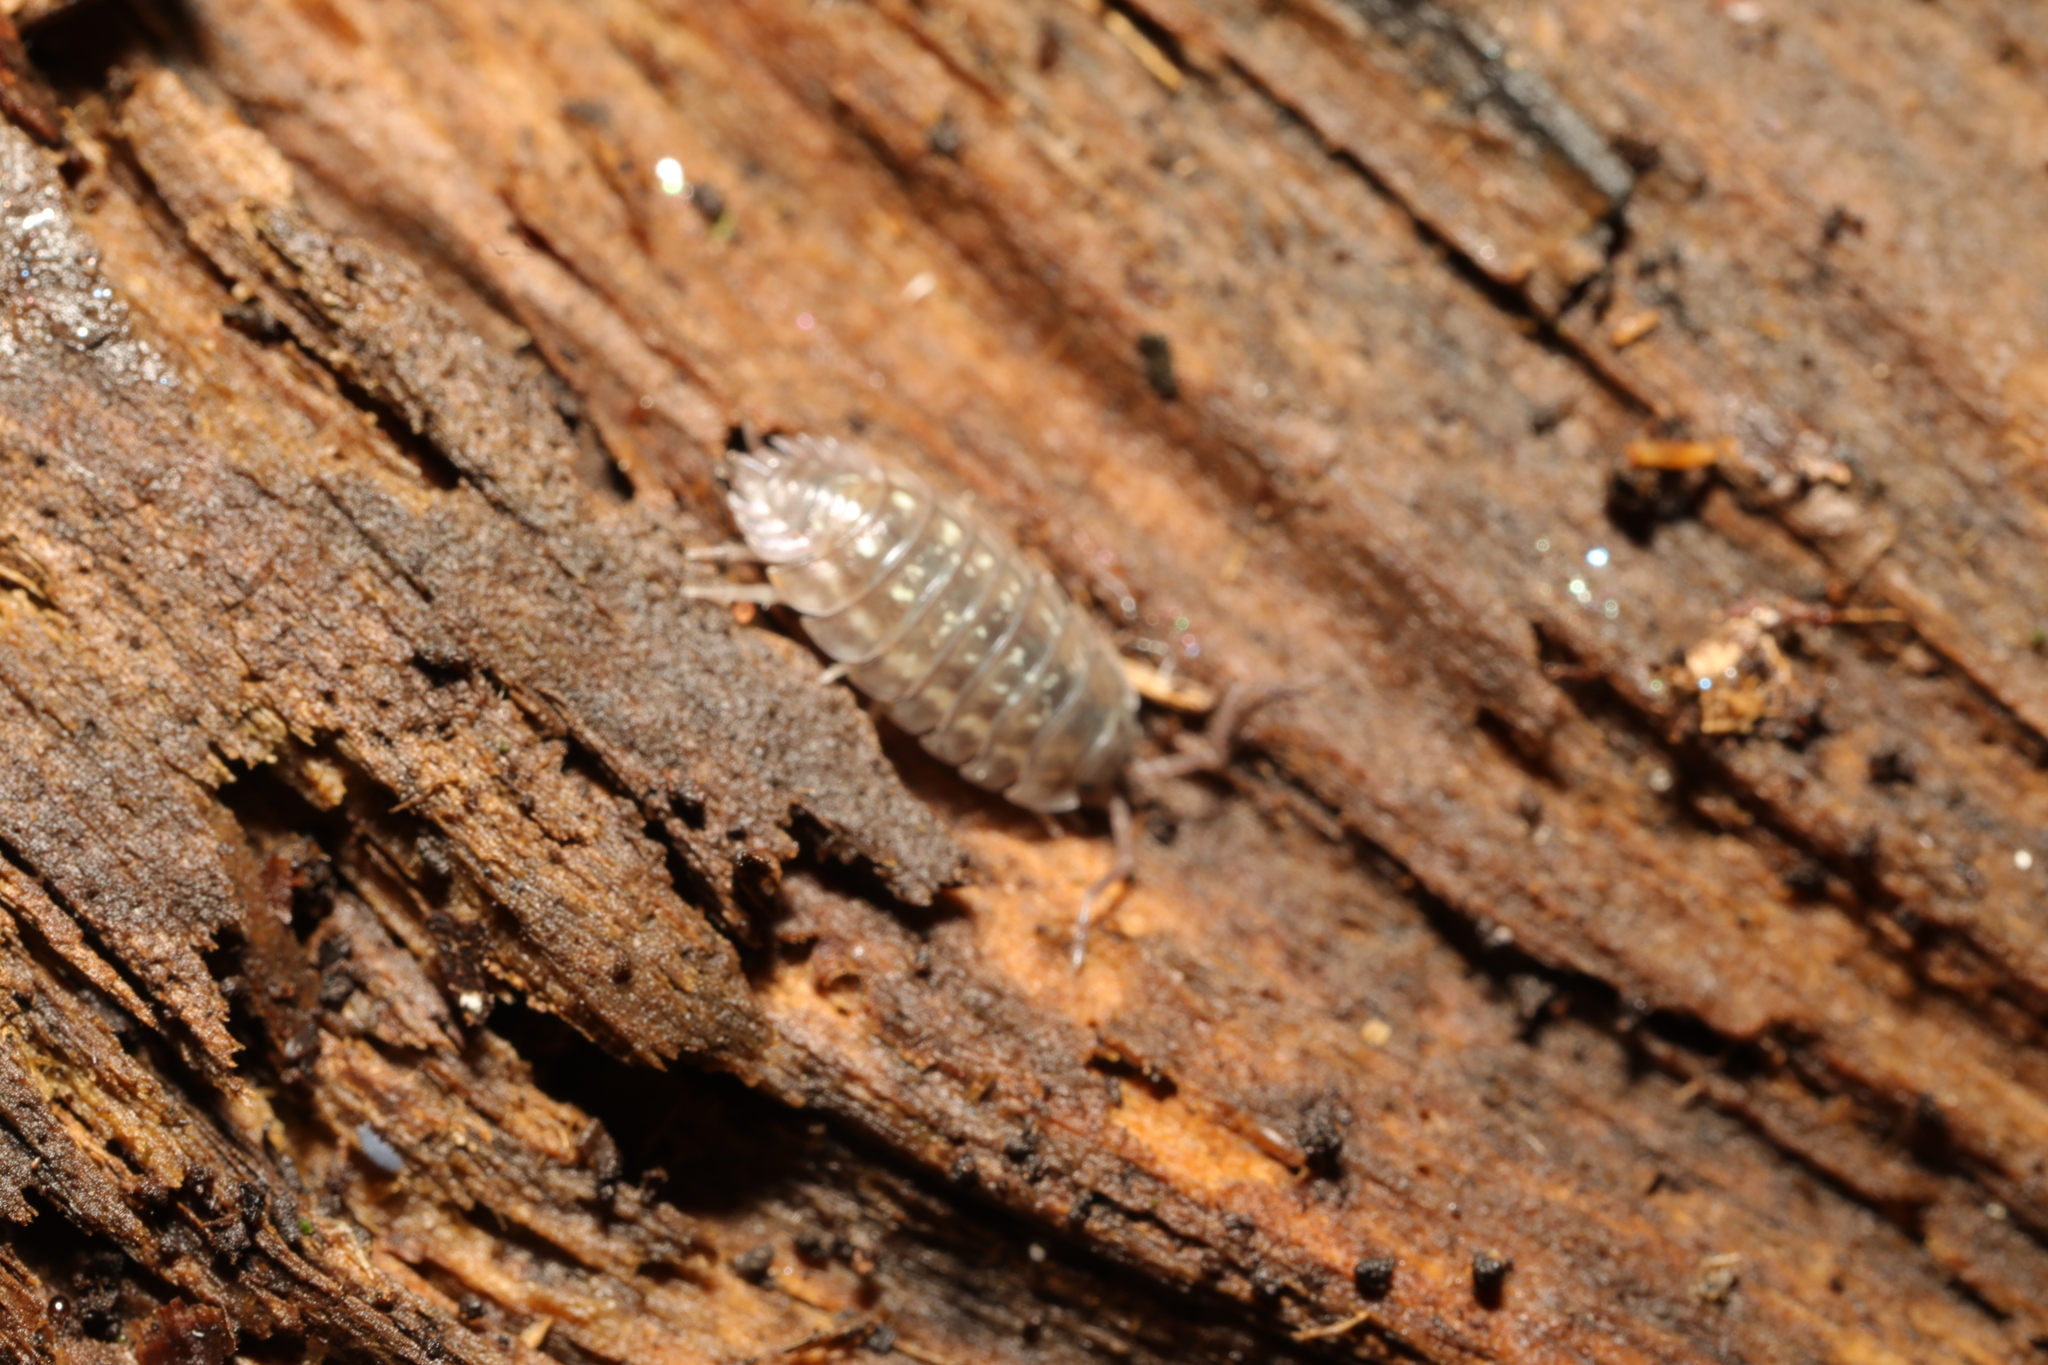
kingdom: Animalia
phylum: Arthropoda
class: Malacostraca
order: Isopoda
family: Oniscidae
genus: Oniscus
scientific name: Oniscus asellus
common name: Common shiny woodlouse
